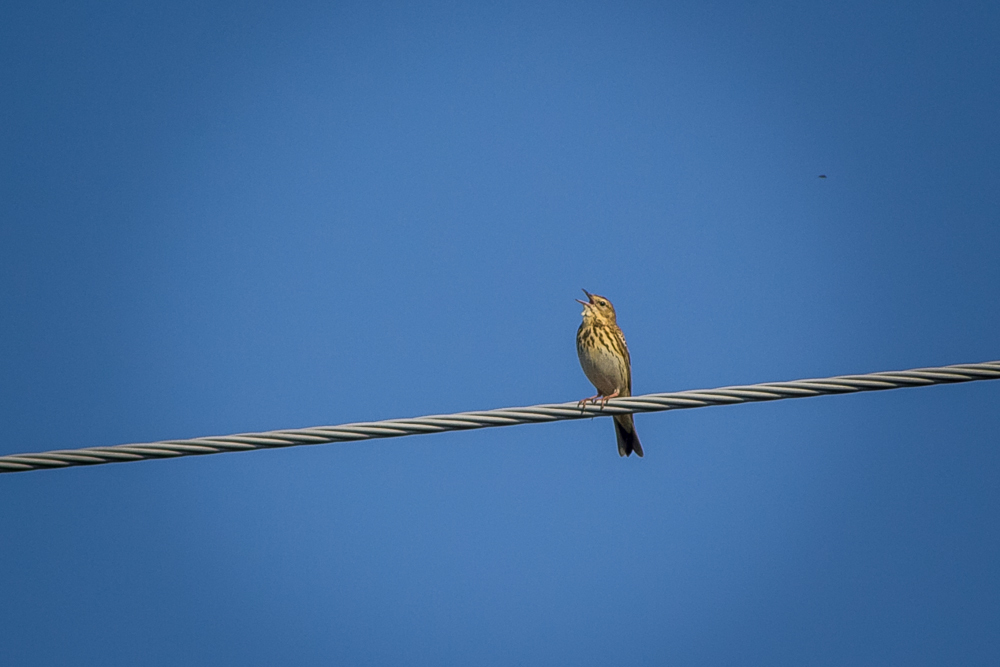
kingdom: Animalia
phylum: Chordata
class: Aves
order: Passeriformes
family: Motacillidae
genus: Anthus
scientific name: Anthus trivialis
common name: Tree pipit
